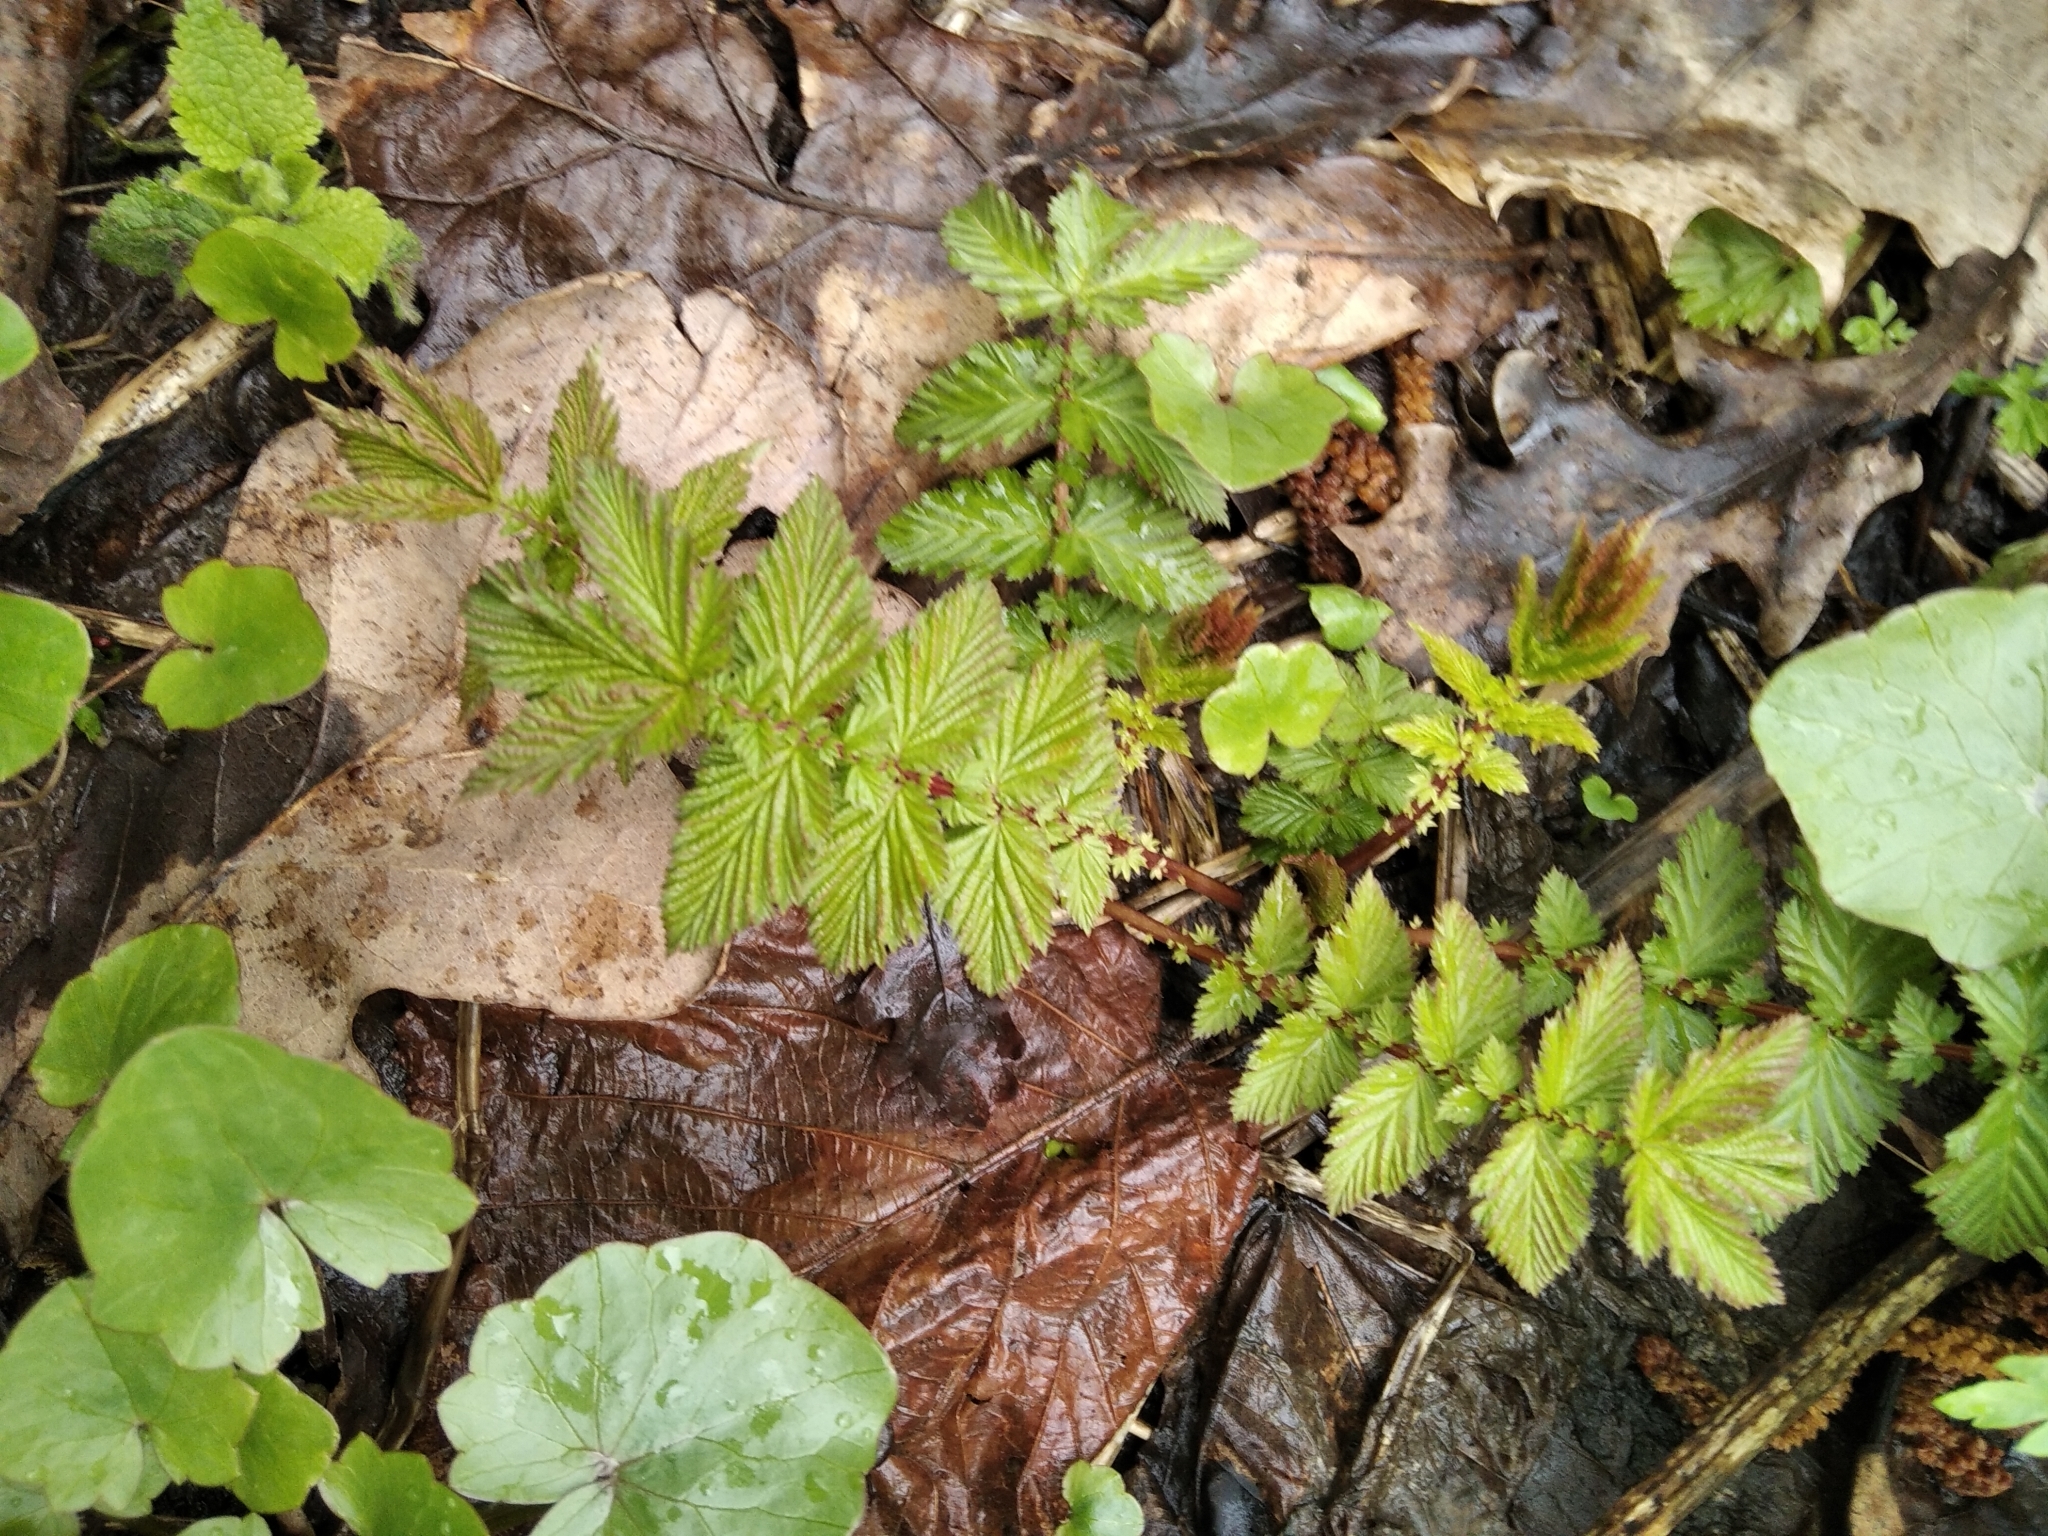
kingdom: Plantae
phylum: Tracheophyta
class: Magnoliopsida
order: Rosales
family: Rosaceae
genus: Filipendula
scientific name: Filipendula ulmaria
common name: Meadowsweet
